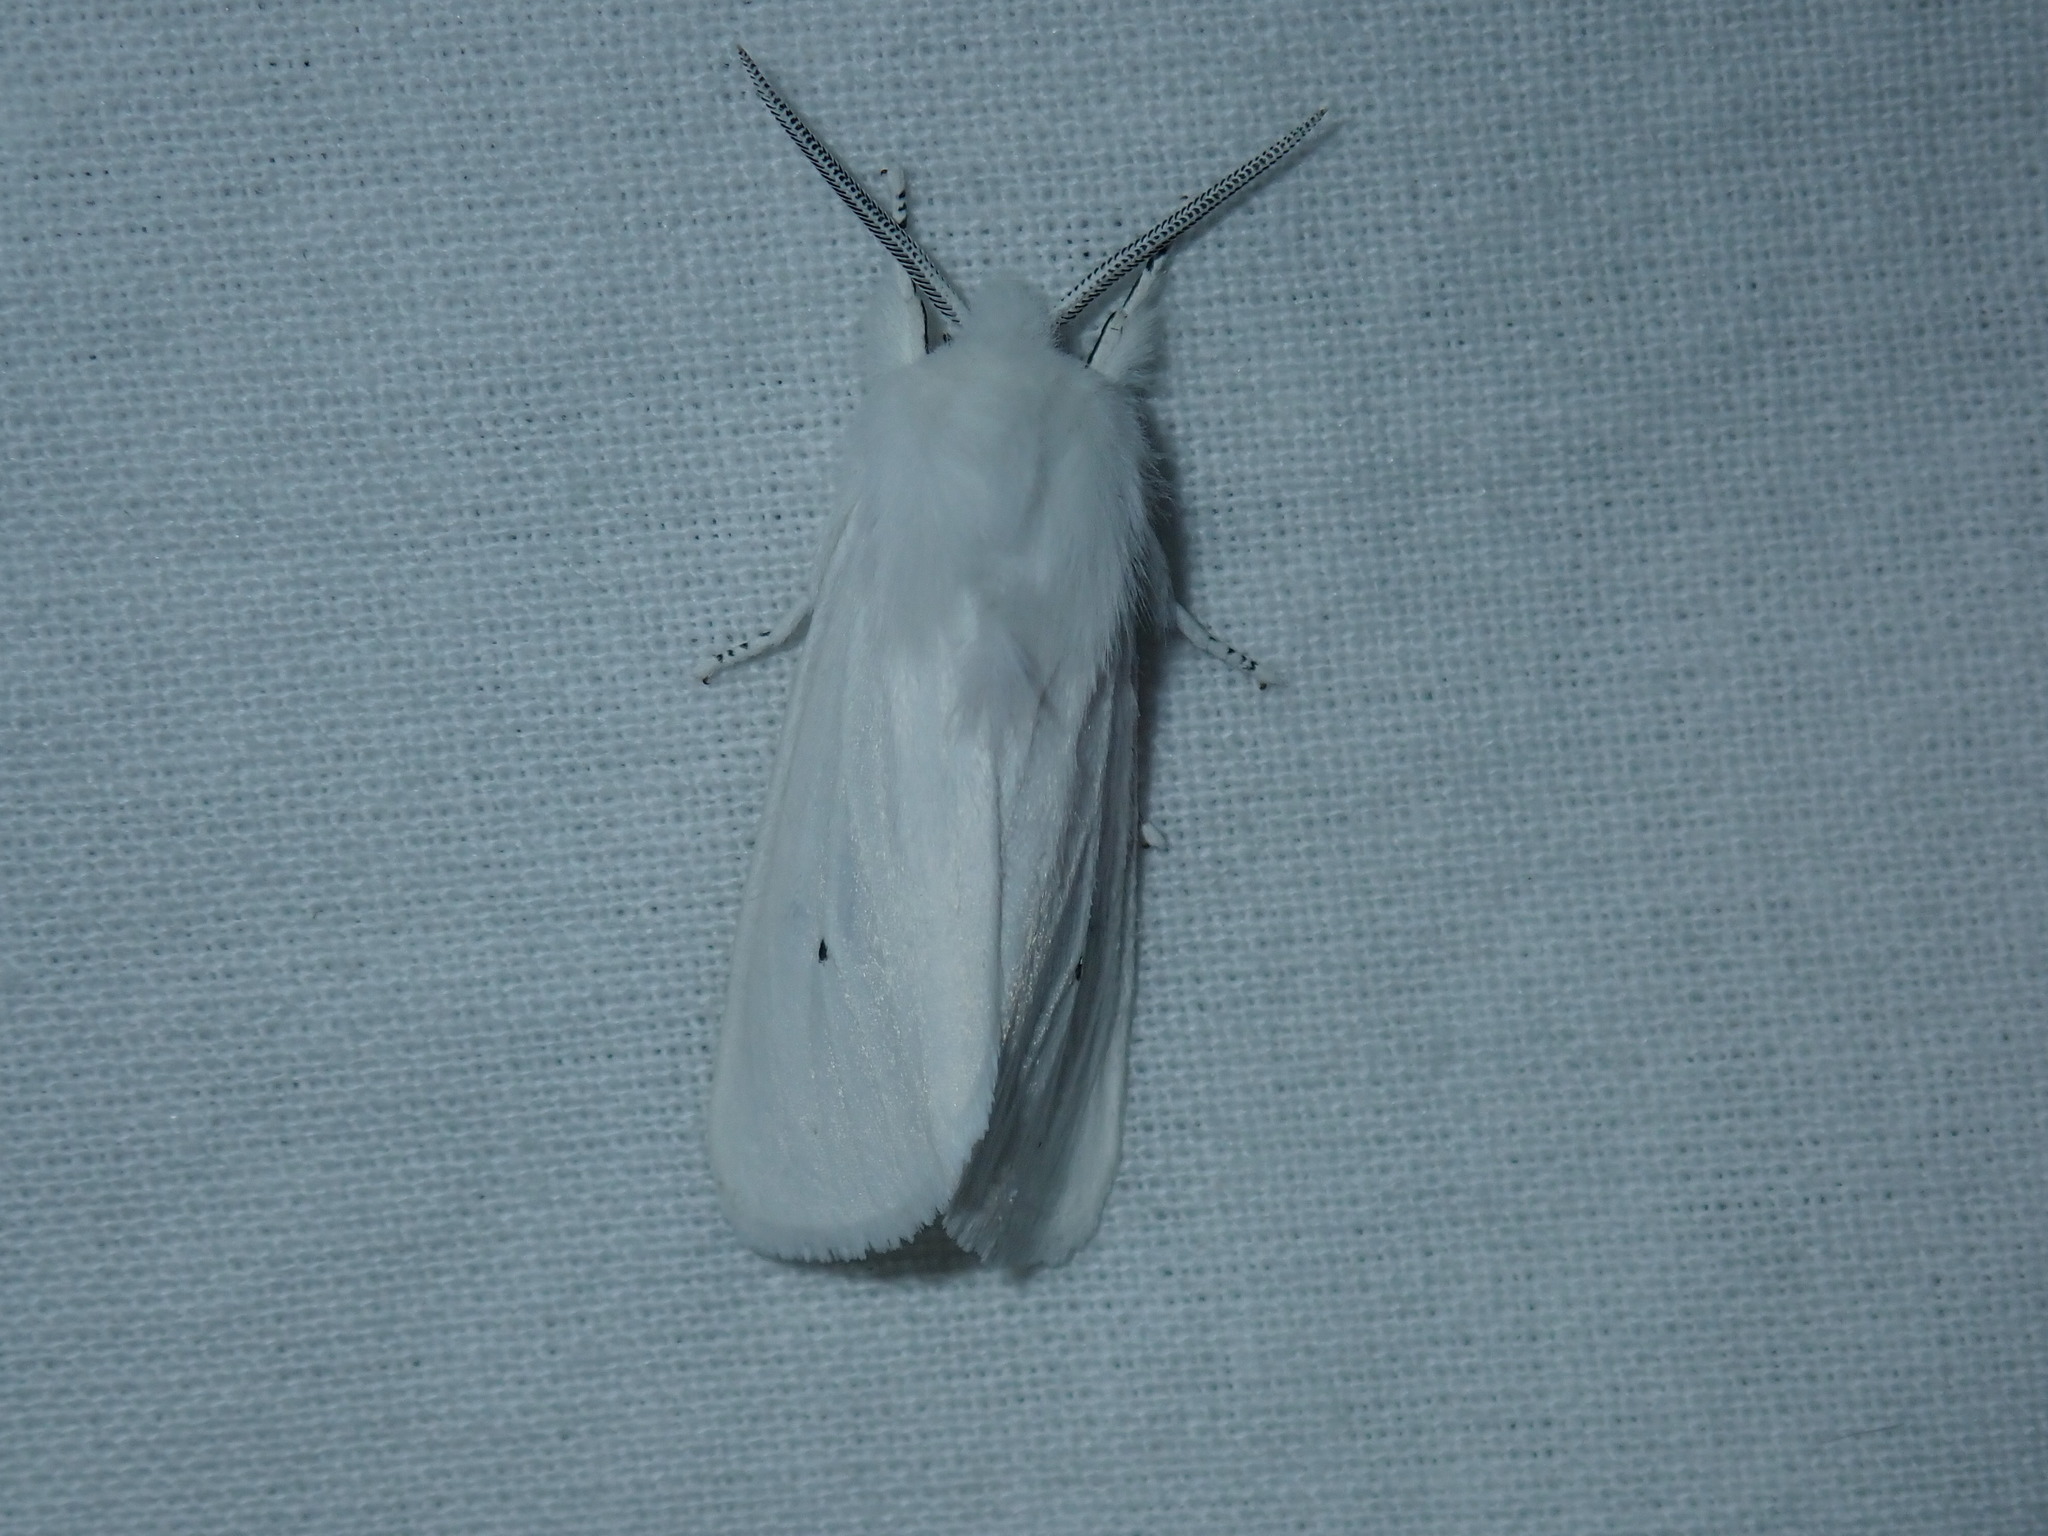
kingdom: Animalia
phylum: Arthropoda
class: Insecta
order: Lepidoptera
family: Erebidae
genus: Spilosoma
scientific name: Spilosoma virginica
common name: Virginia tiger moth
